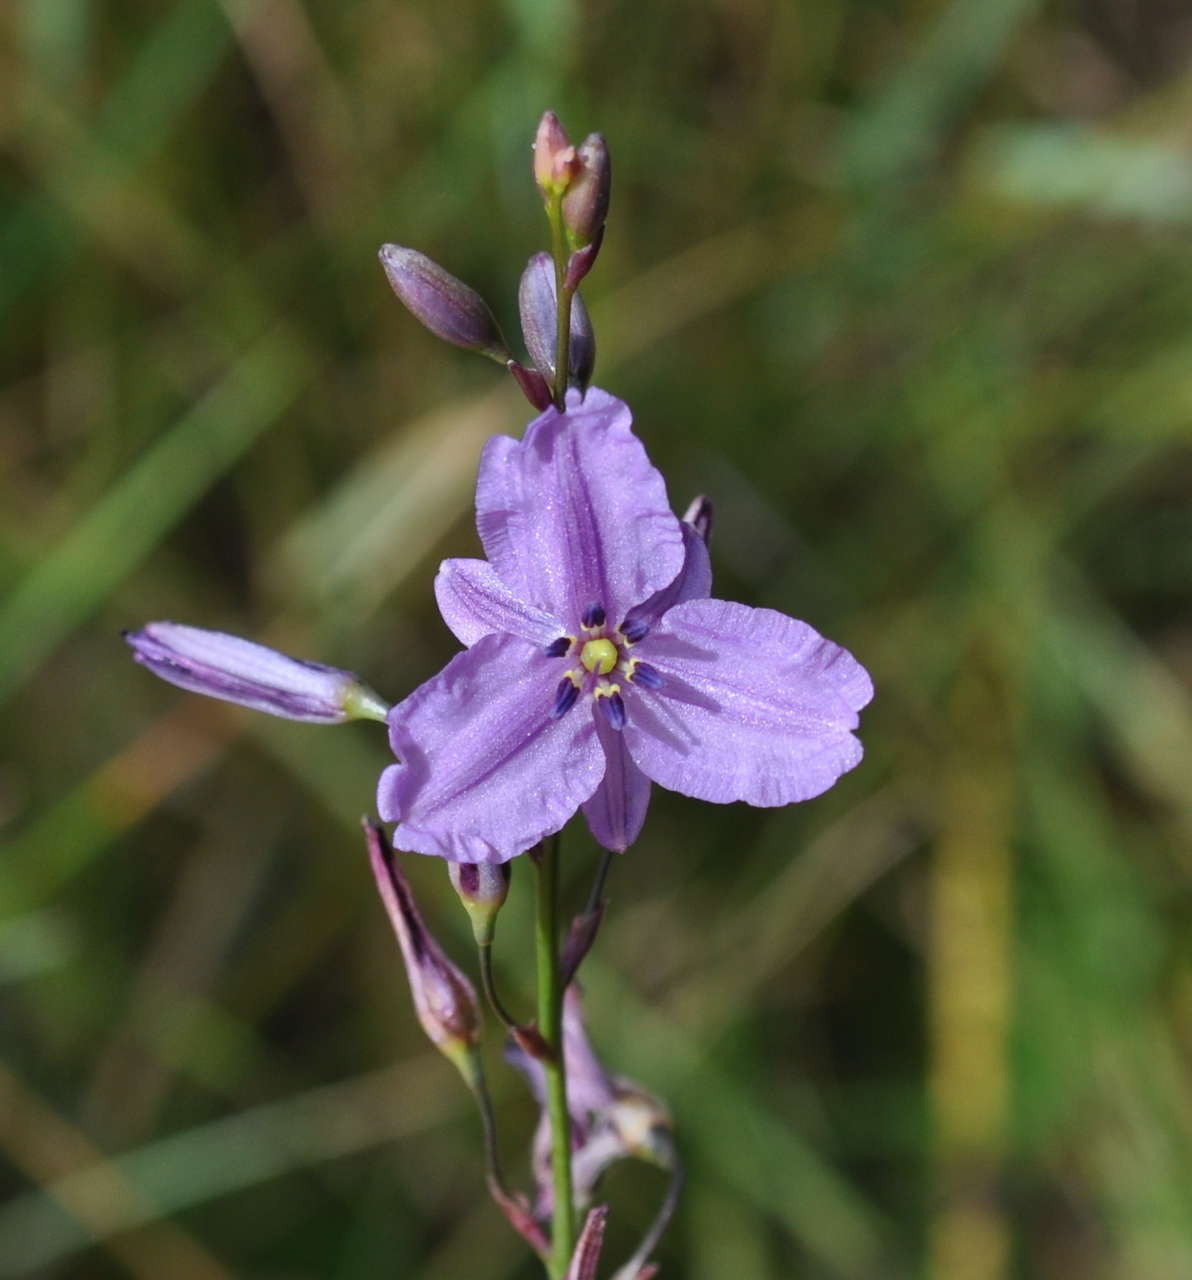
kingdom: Plantae
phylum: Tracheophyta
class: Liliopsida
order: Asparagales
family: Asparagaceae
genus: Arthropodium
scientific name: Arthropodium strictum
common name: Chocolate-lily
